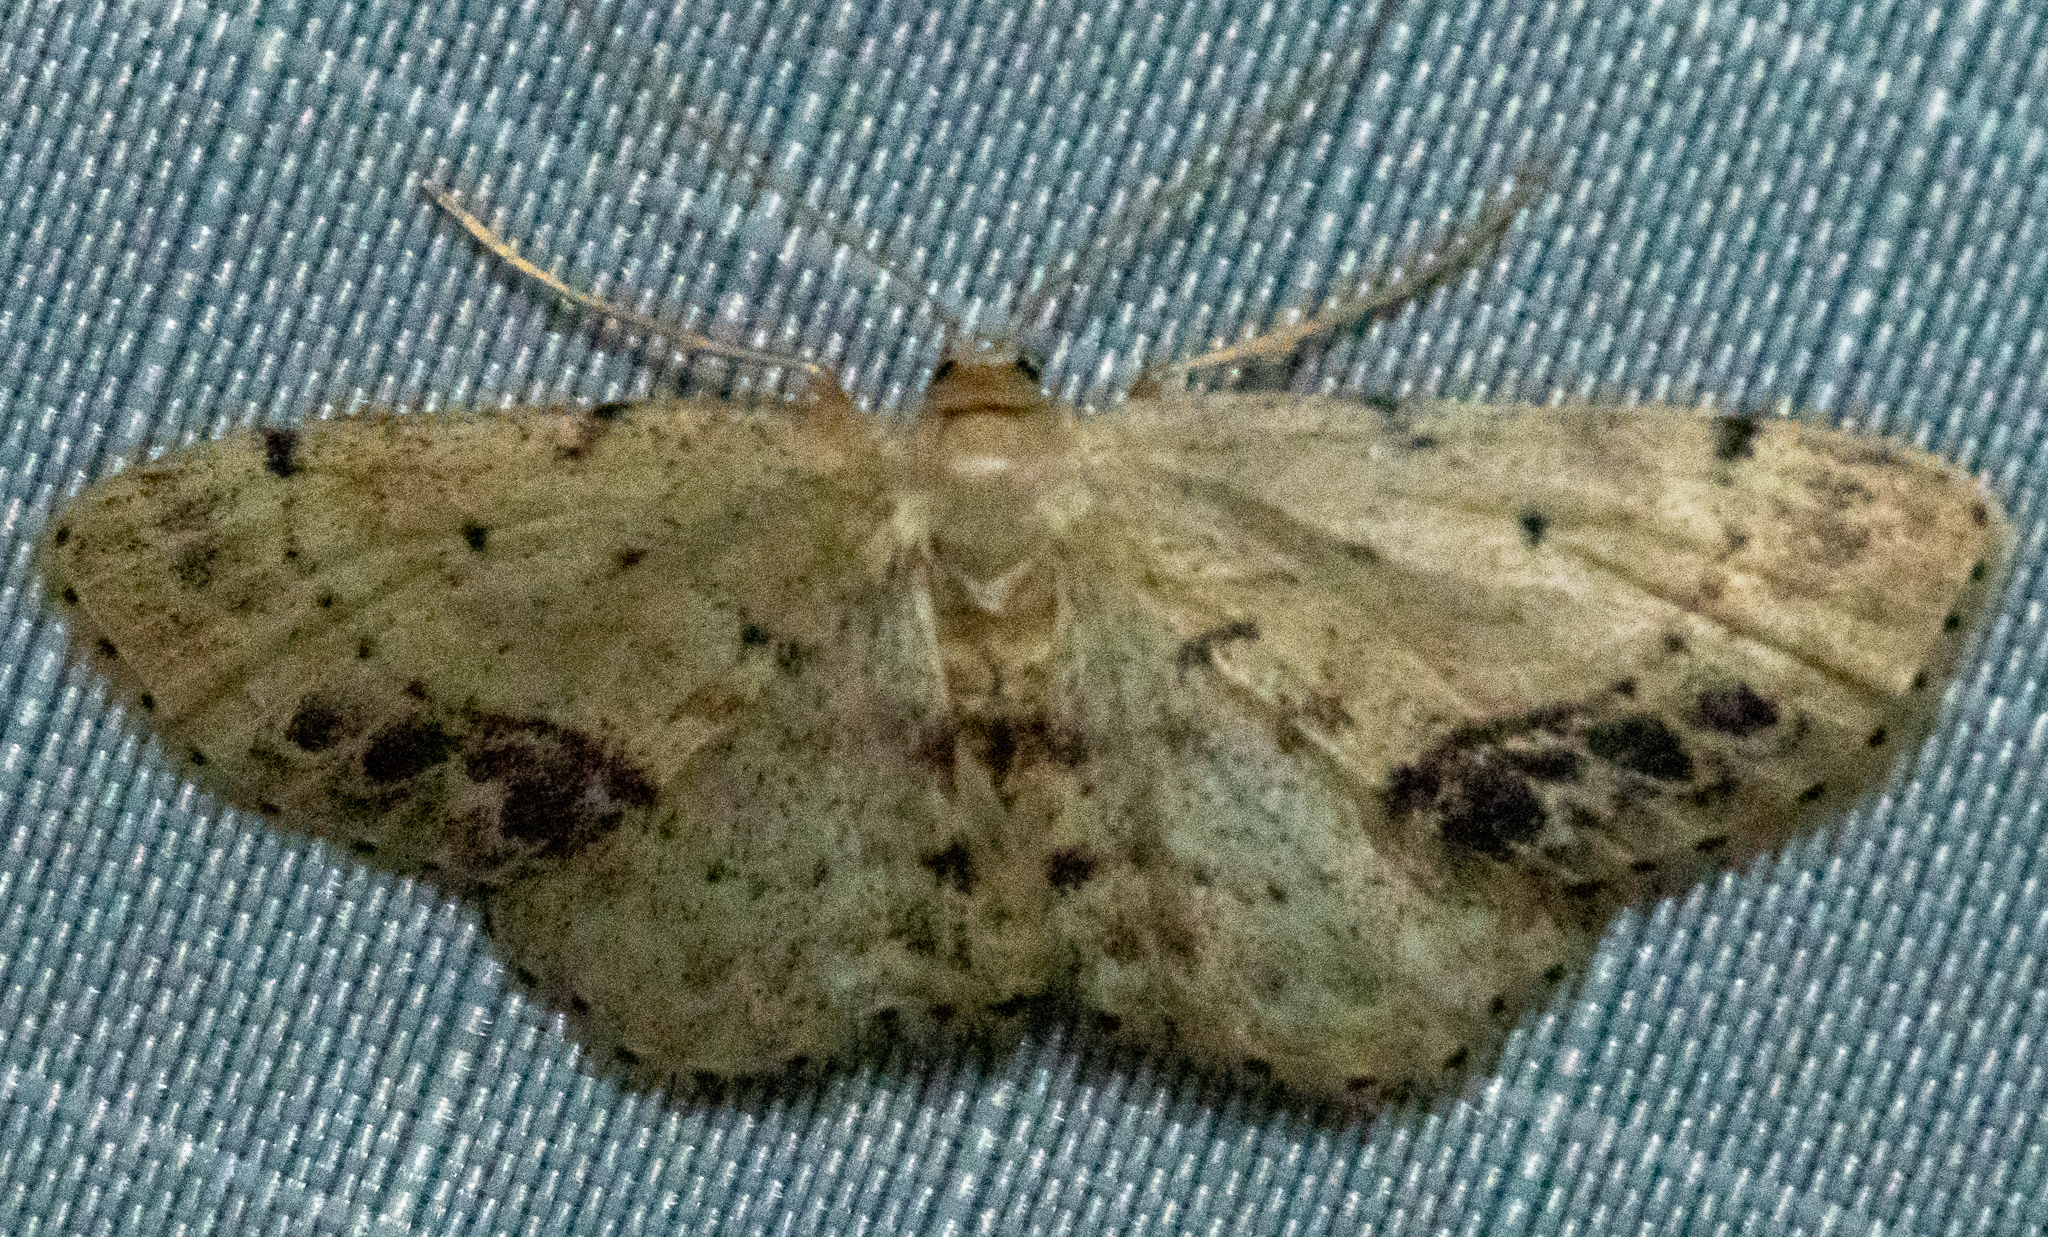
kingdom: Animalia
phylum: Arthropoda
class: Insecta
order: Lepidoptera
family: Geometridae
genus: Idaea
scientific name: Idaea dimidiata
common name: Single-dotted wave
